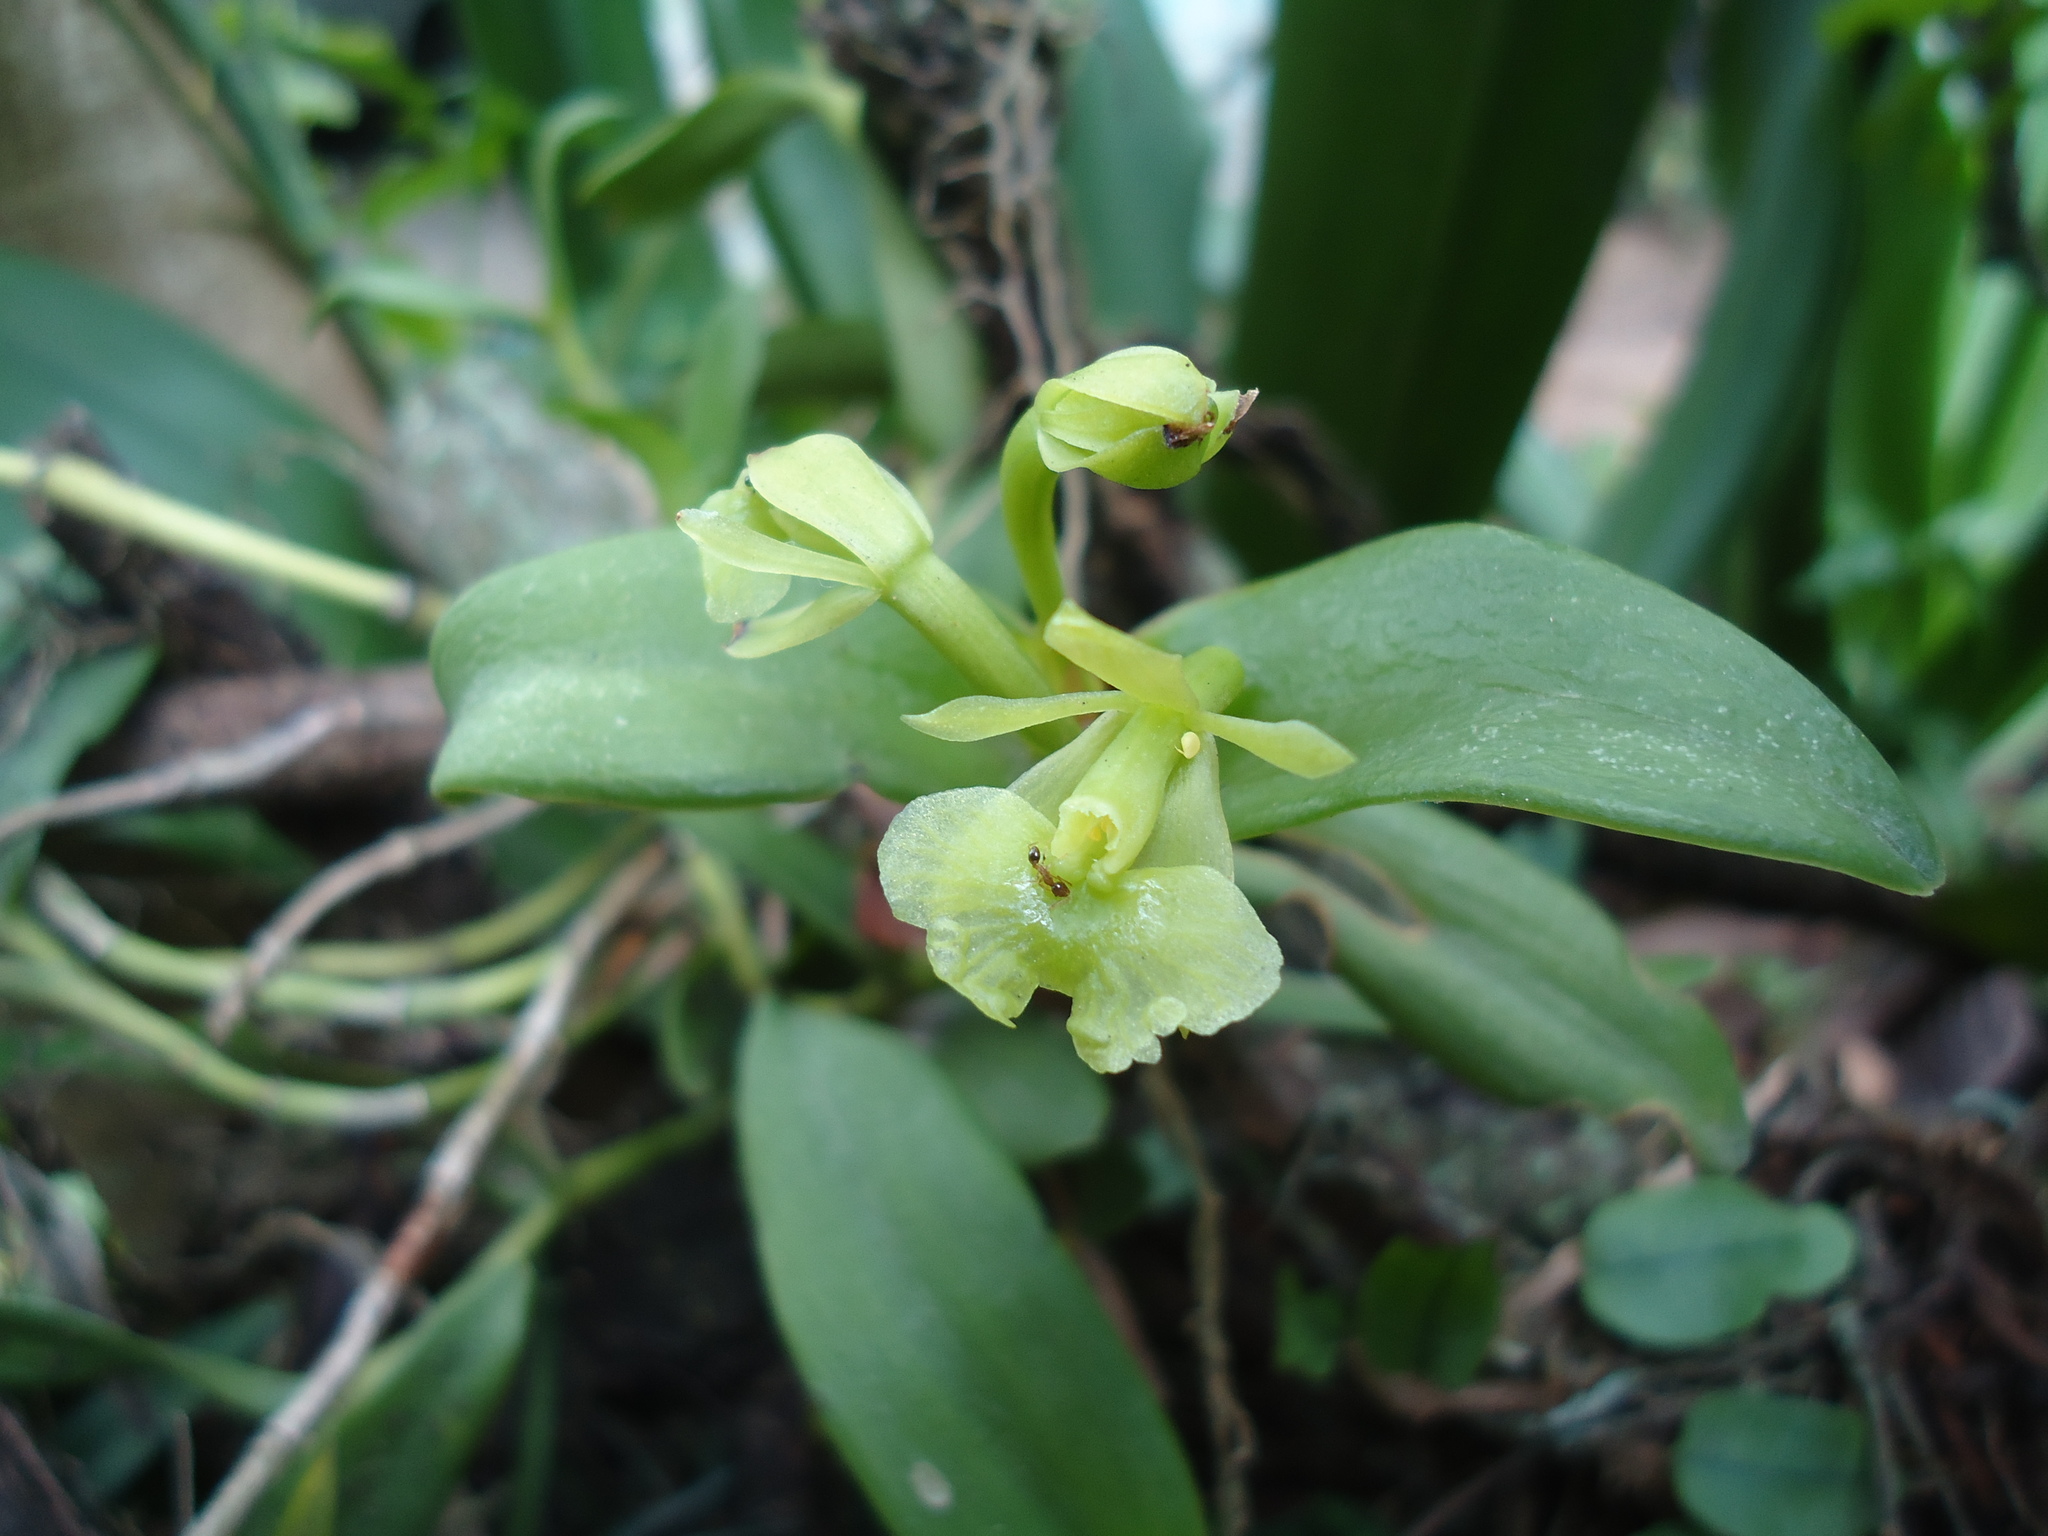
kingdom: Plantae
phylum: Tracheophyta
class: Liliopsida
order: Asparagales
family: Orchidaceae
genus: Epidendrum
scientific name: Epidendrum pseudodifforme
